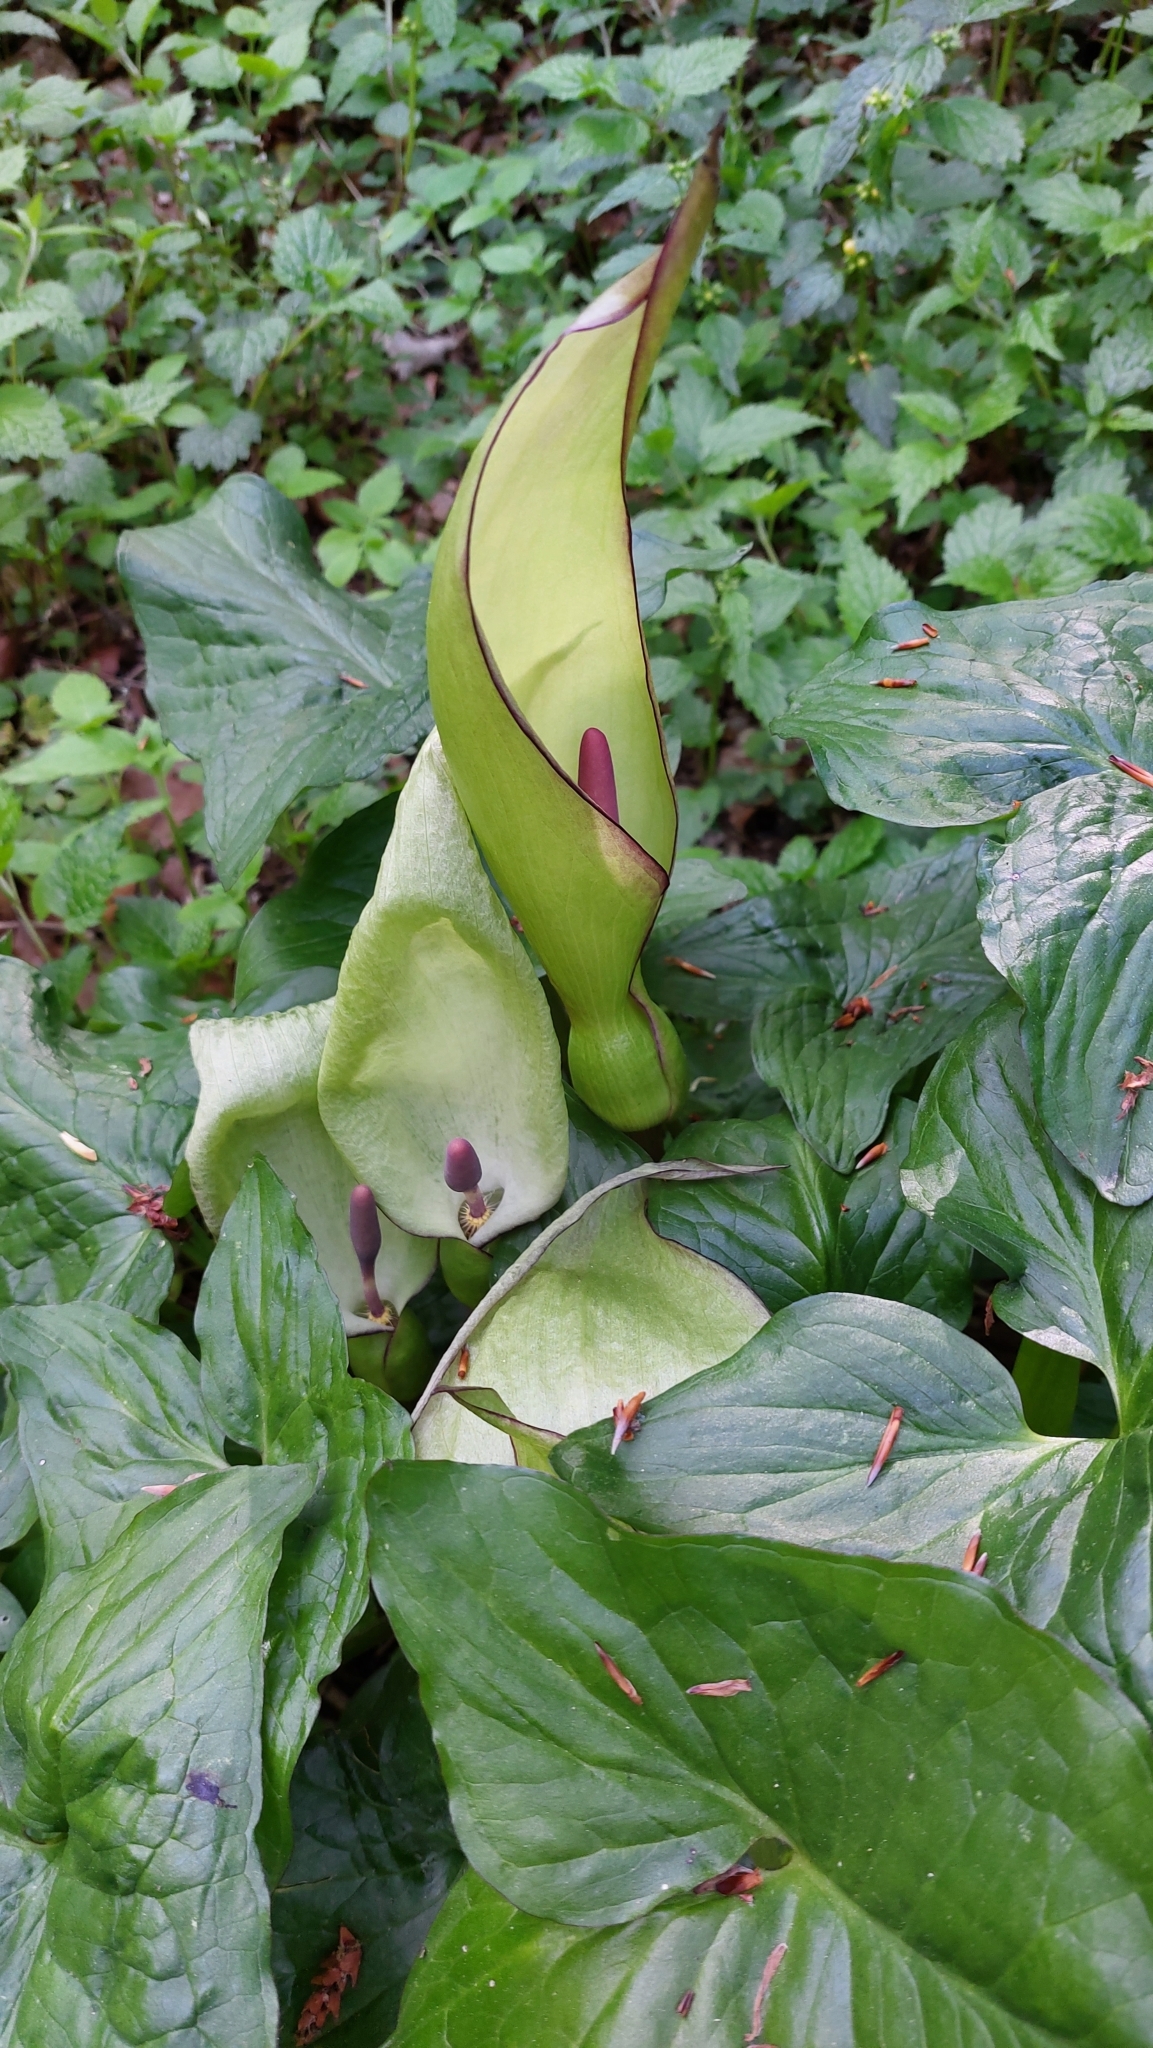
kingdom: Plantae
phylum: Tracheophyta
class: Liliopsida
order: Alismatales
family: Araceae
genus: Arum
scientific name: Arum maculatum
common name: Lords-and-ladies
